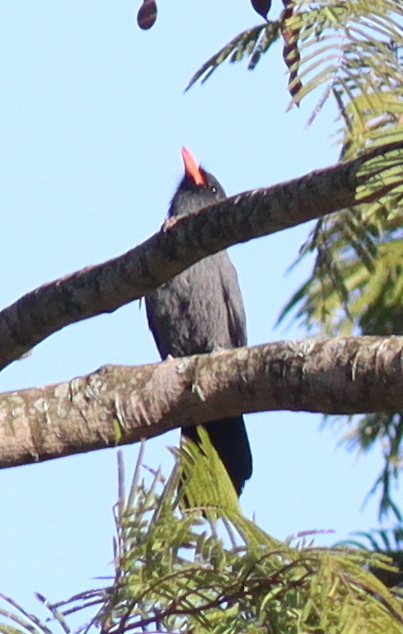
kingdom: Animalia
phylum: Chordata
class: Aves
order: Piciformes
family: Bucconidae
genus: Monasa
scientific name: Monasa nigrifrons
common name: Black-fronted nunbird
